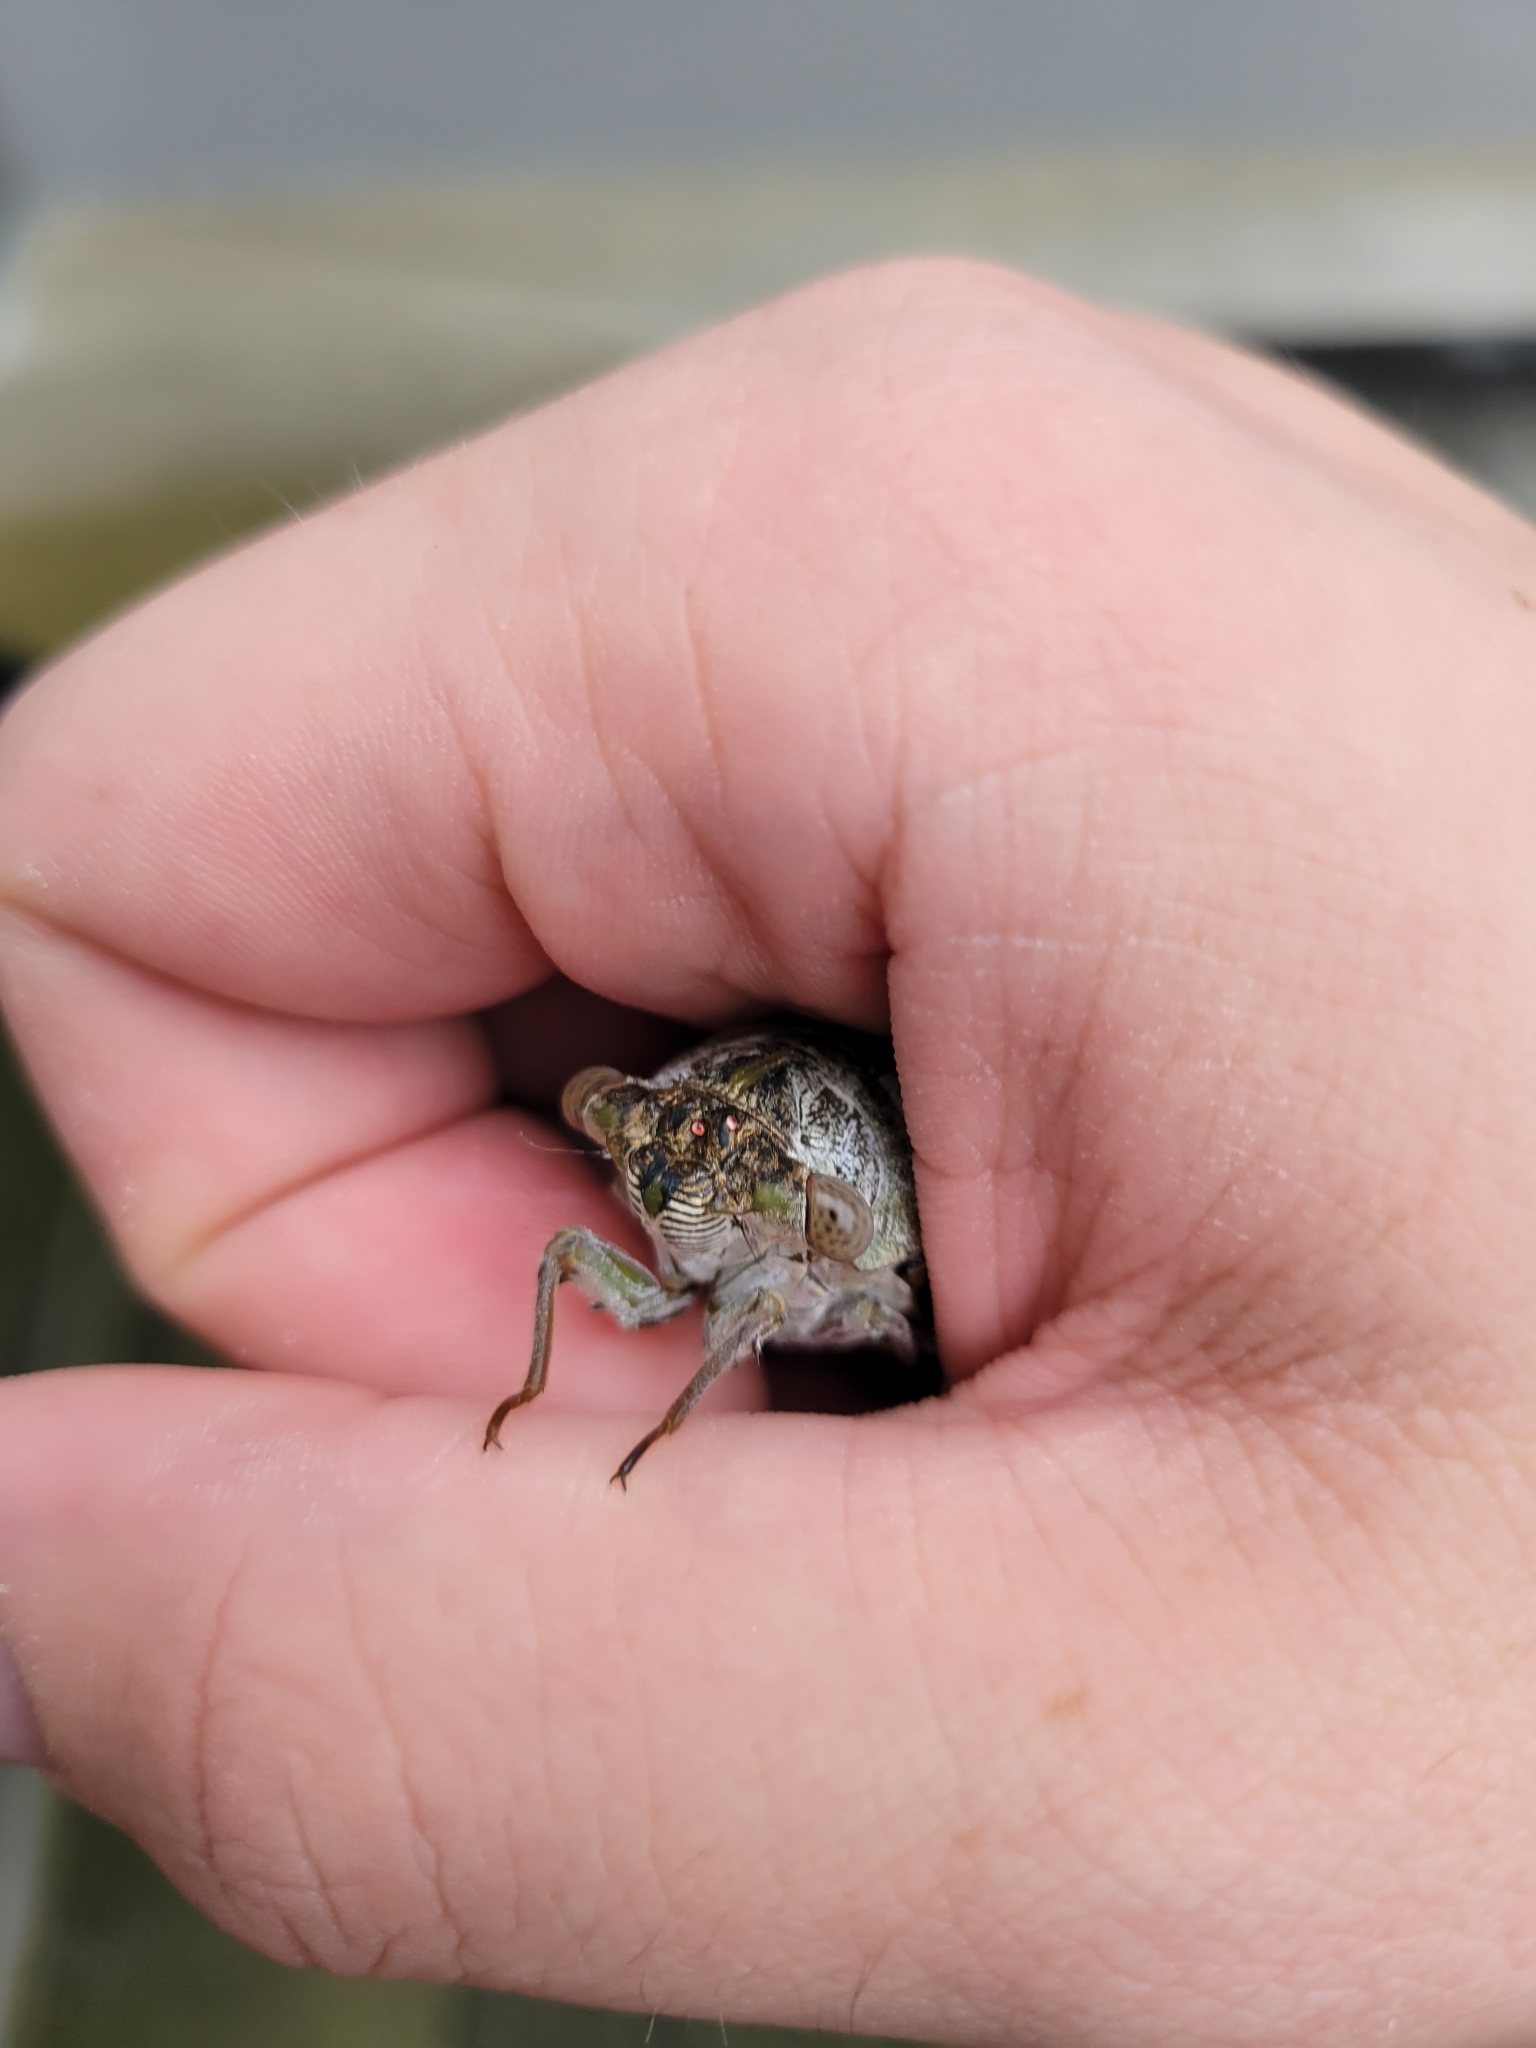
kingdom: Animalia
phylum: Arthropoda
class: Insecta
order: Hemiptera
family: Cicadidae
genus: Diceroprocta
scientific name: Diceroprocta grossa
